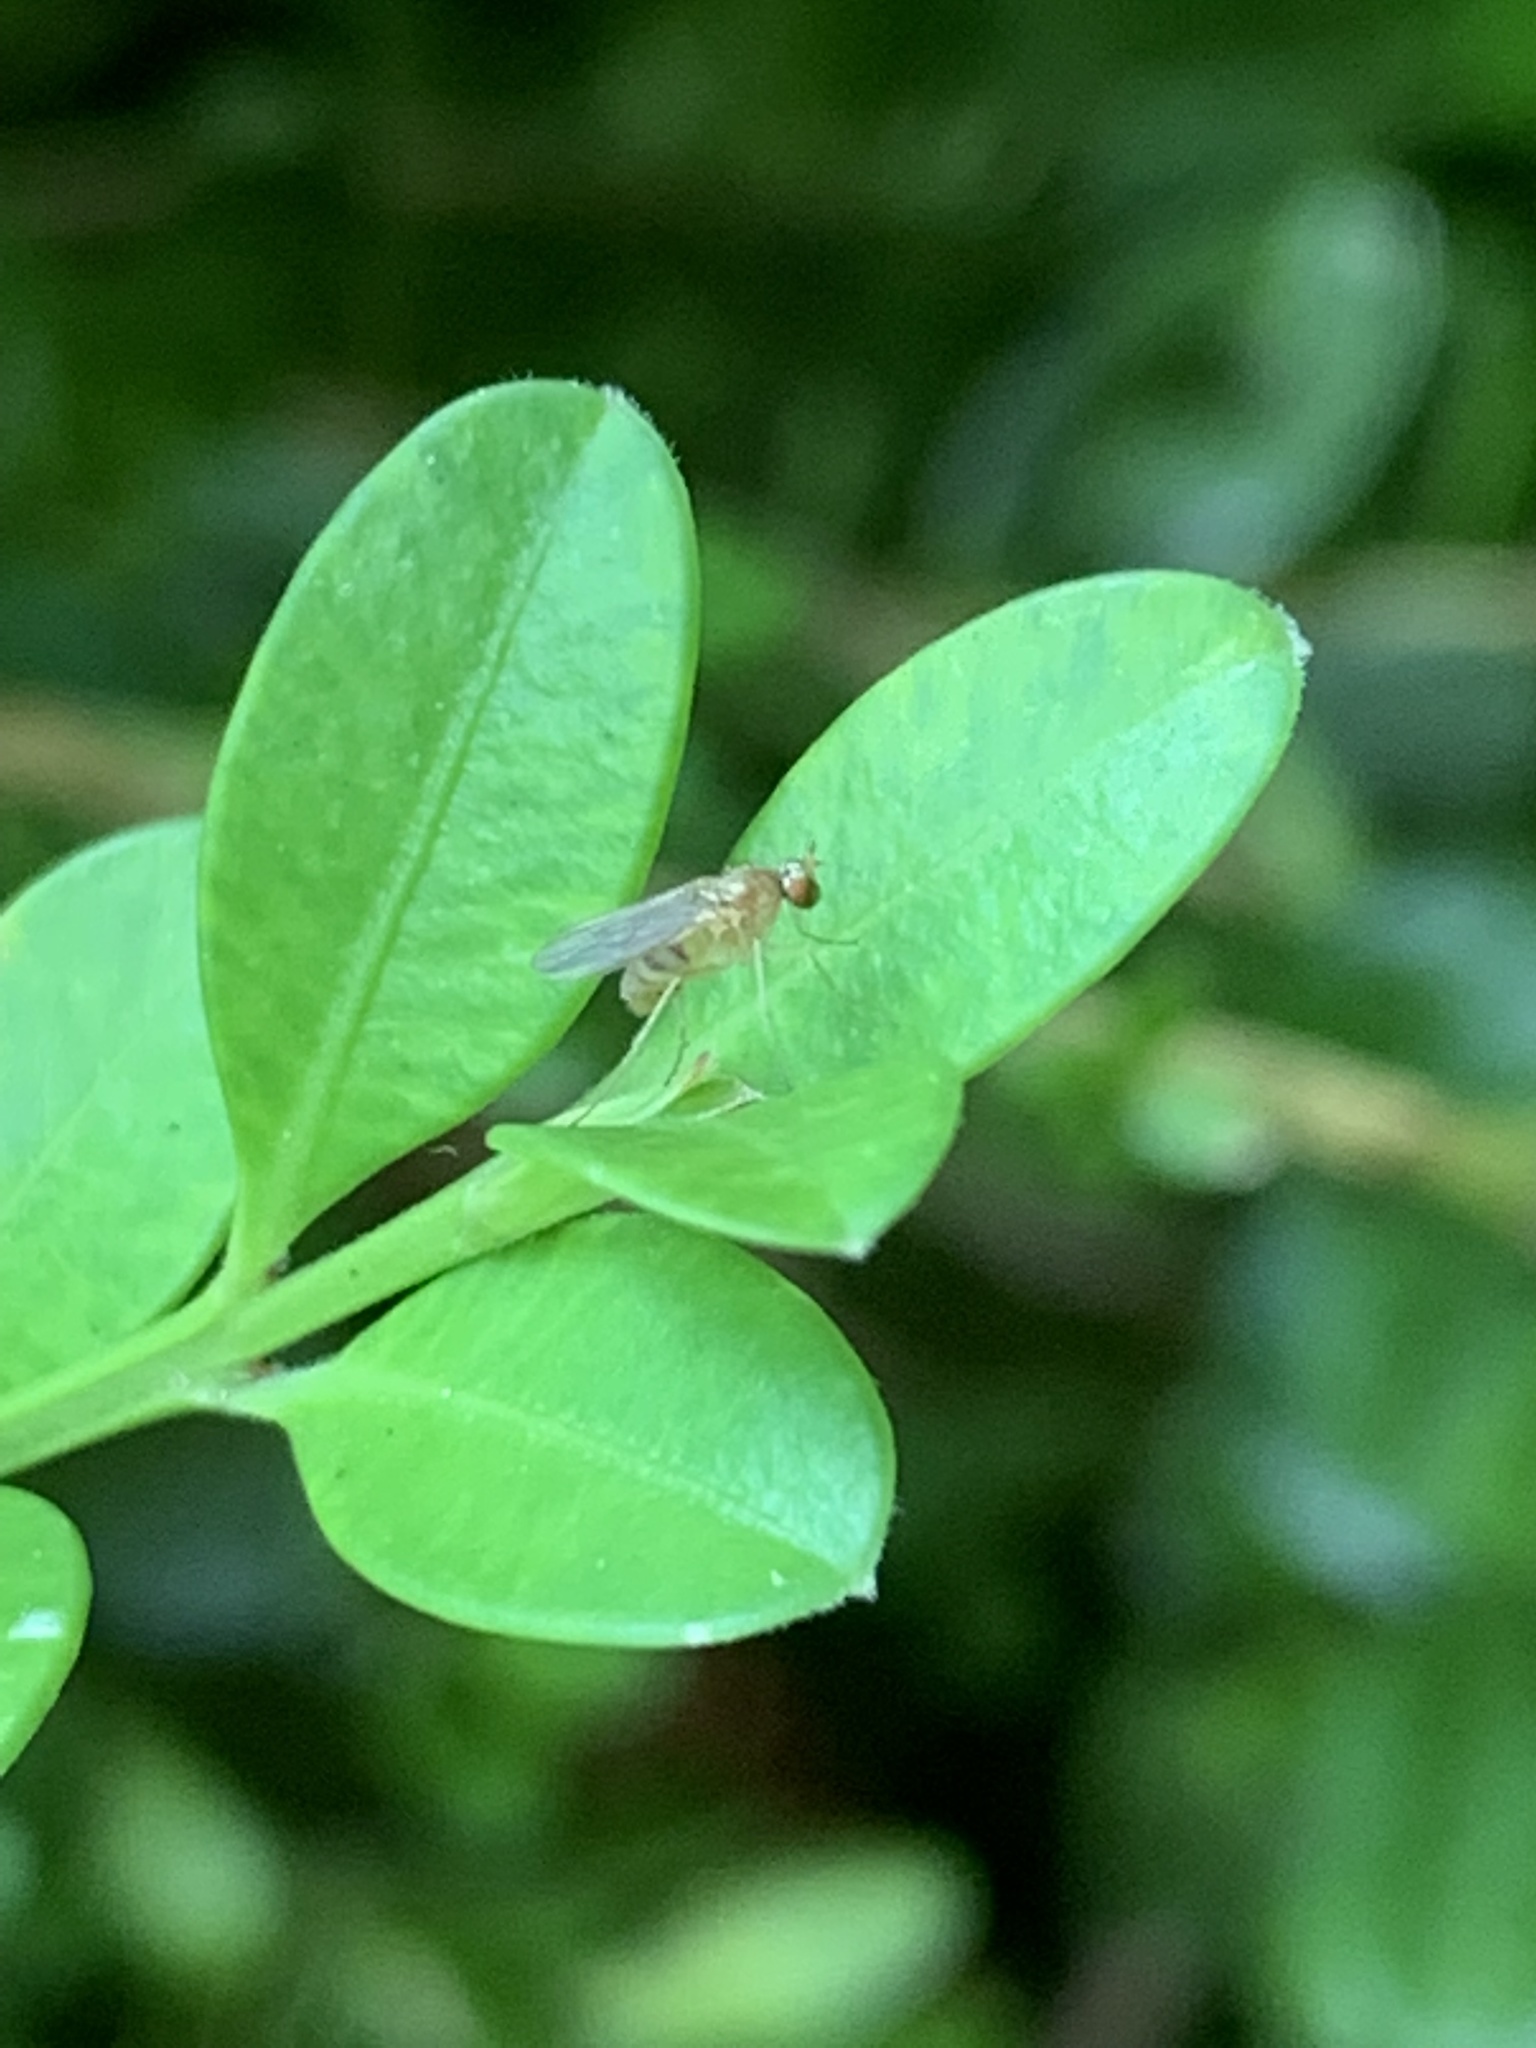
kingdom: Animalia
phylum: Arthropoda
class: Insecta
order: Diptera
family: Dolichopodidae
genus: Gymnopternus
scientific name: Gymnopternus flavus
